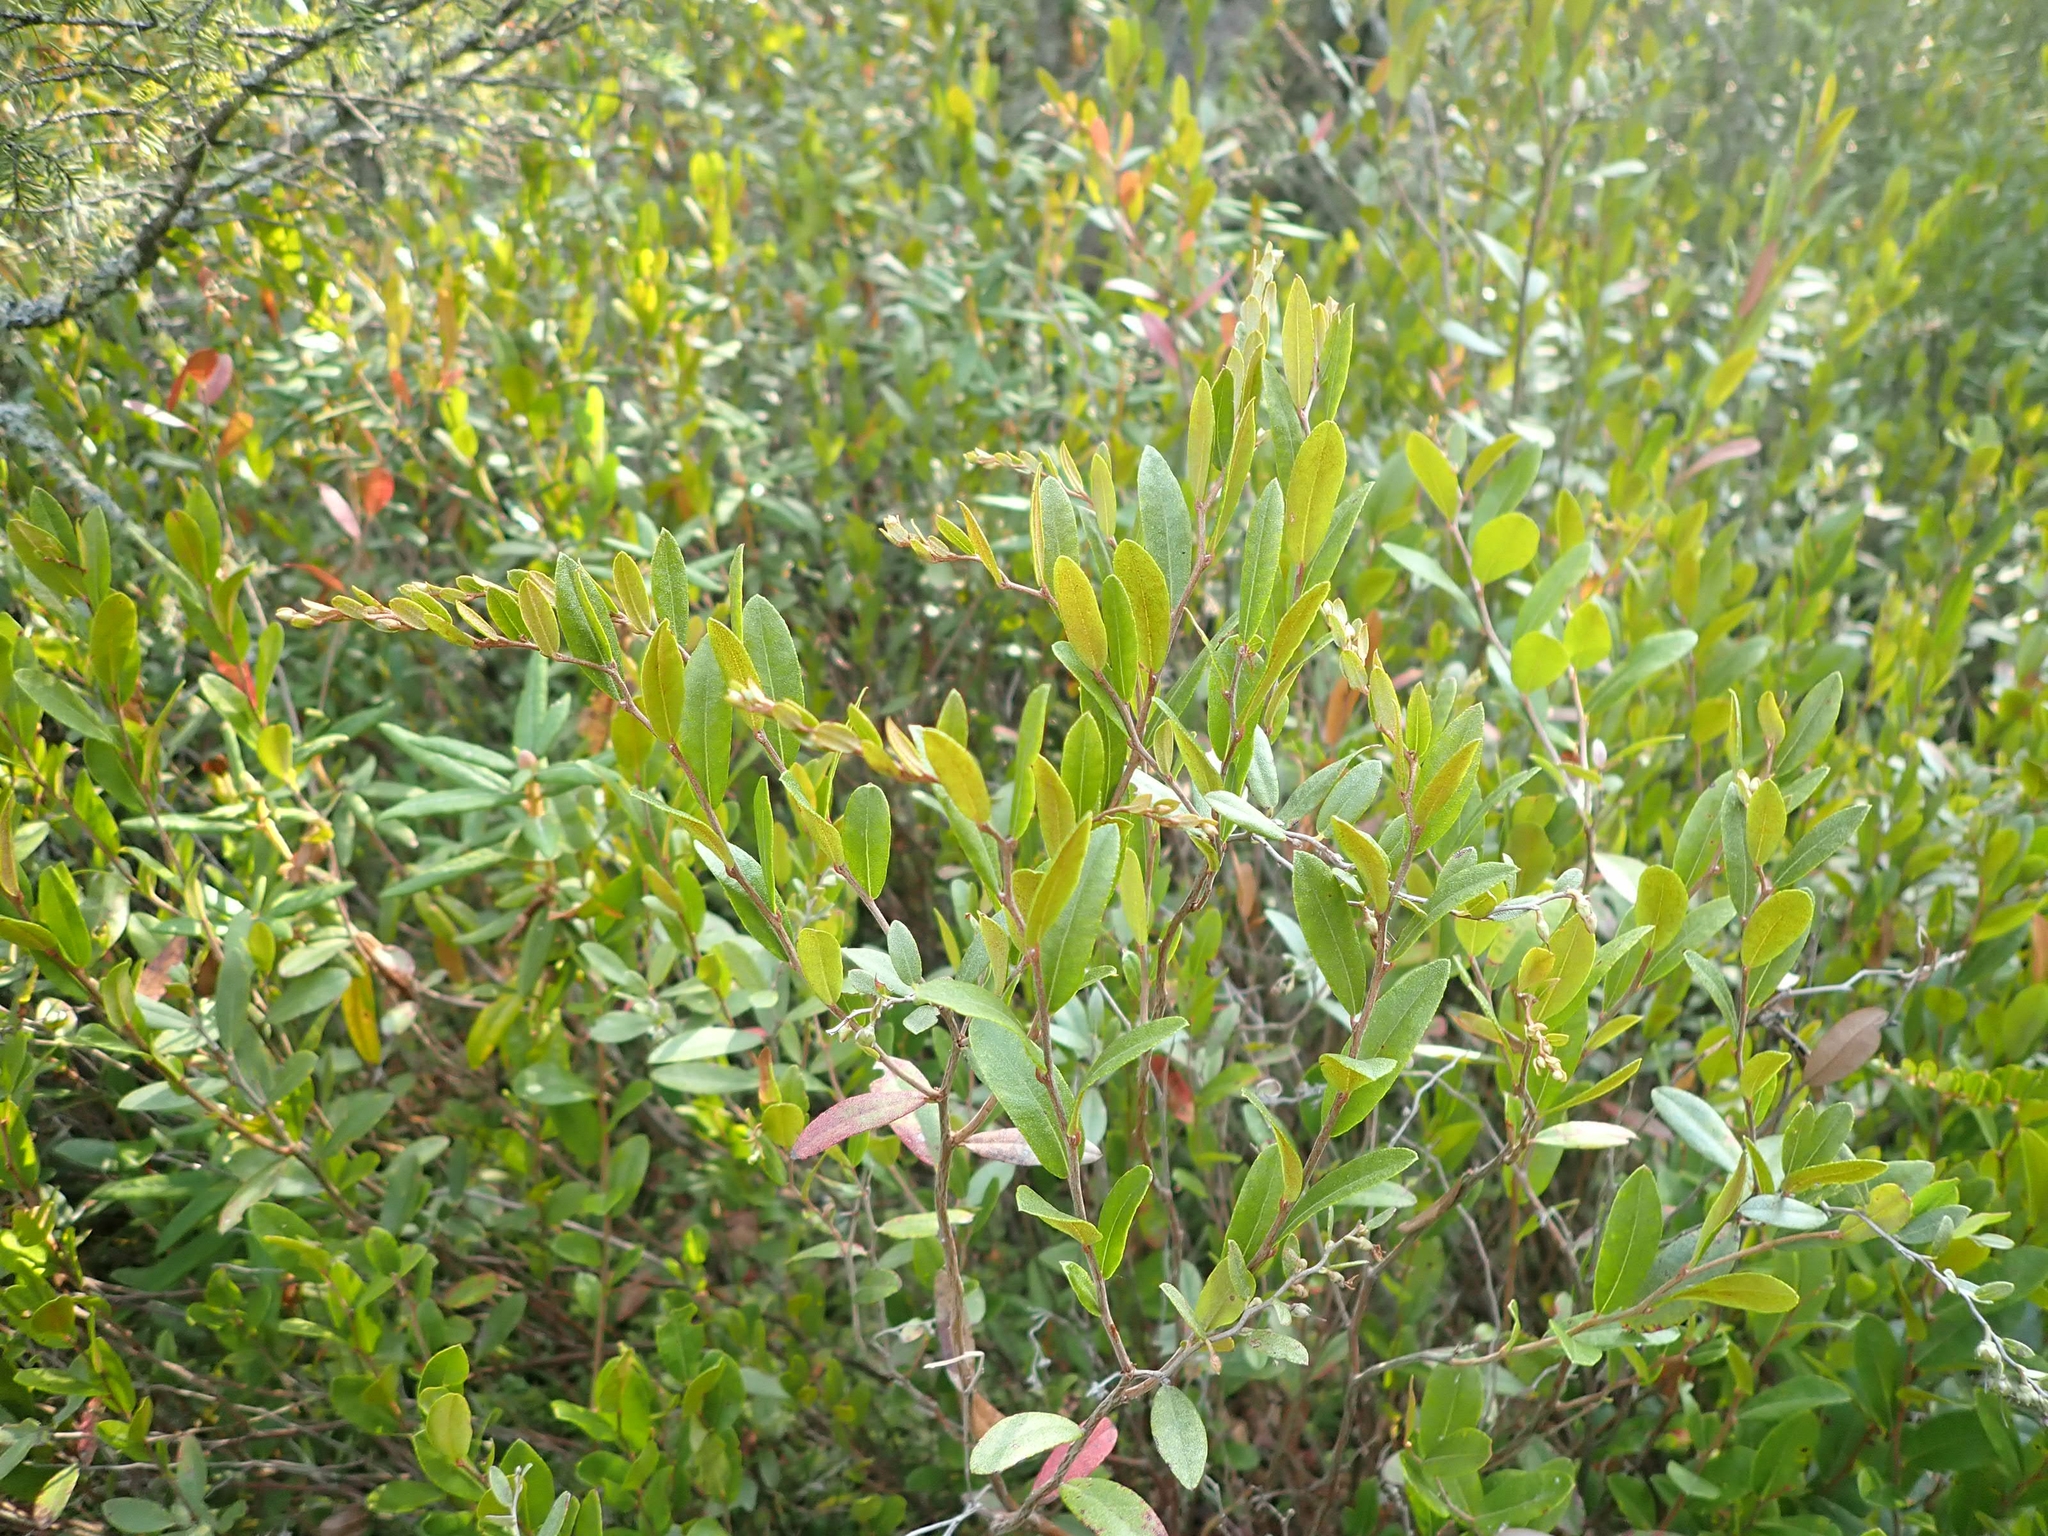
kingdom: Plantae
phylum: Tracheophyta
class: Magnoliopsida
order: Ericales
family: Ericaceae
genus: Chamaedaphne
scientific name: Chamaedaphne calyculata
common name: Leatherleaf
